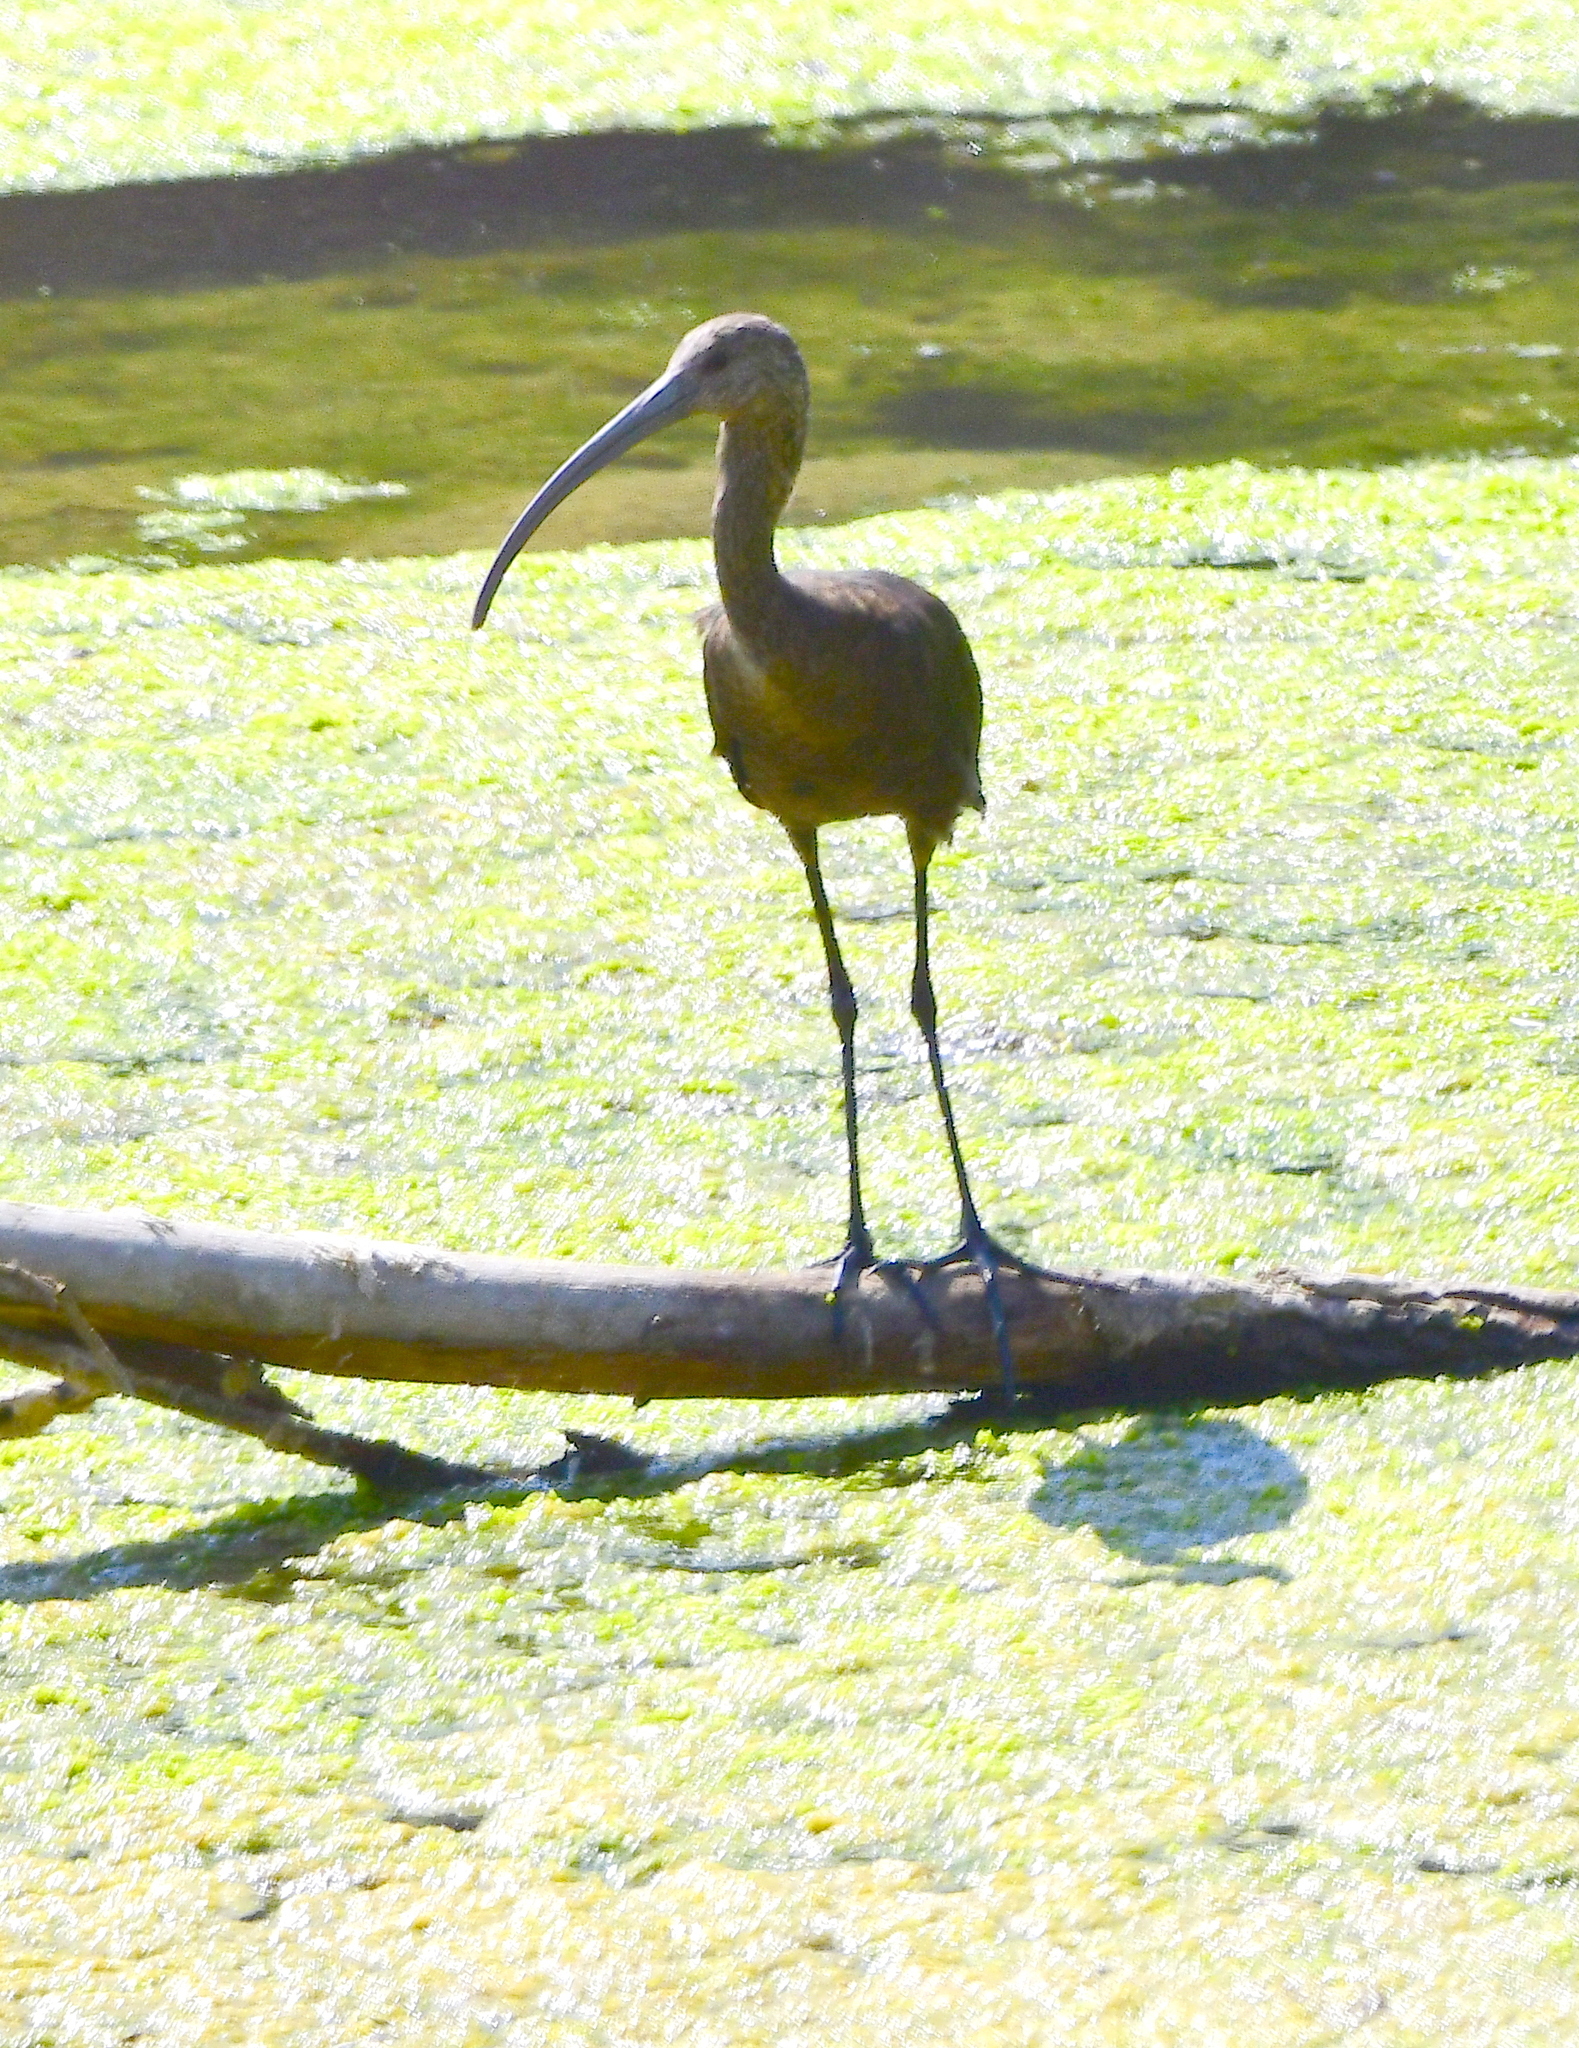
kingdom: Animalia
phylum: Chordata
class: Aves
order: Pelecaniformes
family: Threskiornithidae
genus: Plegadis
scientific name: Plegadis chihi
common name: White-faced ibis
